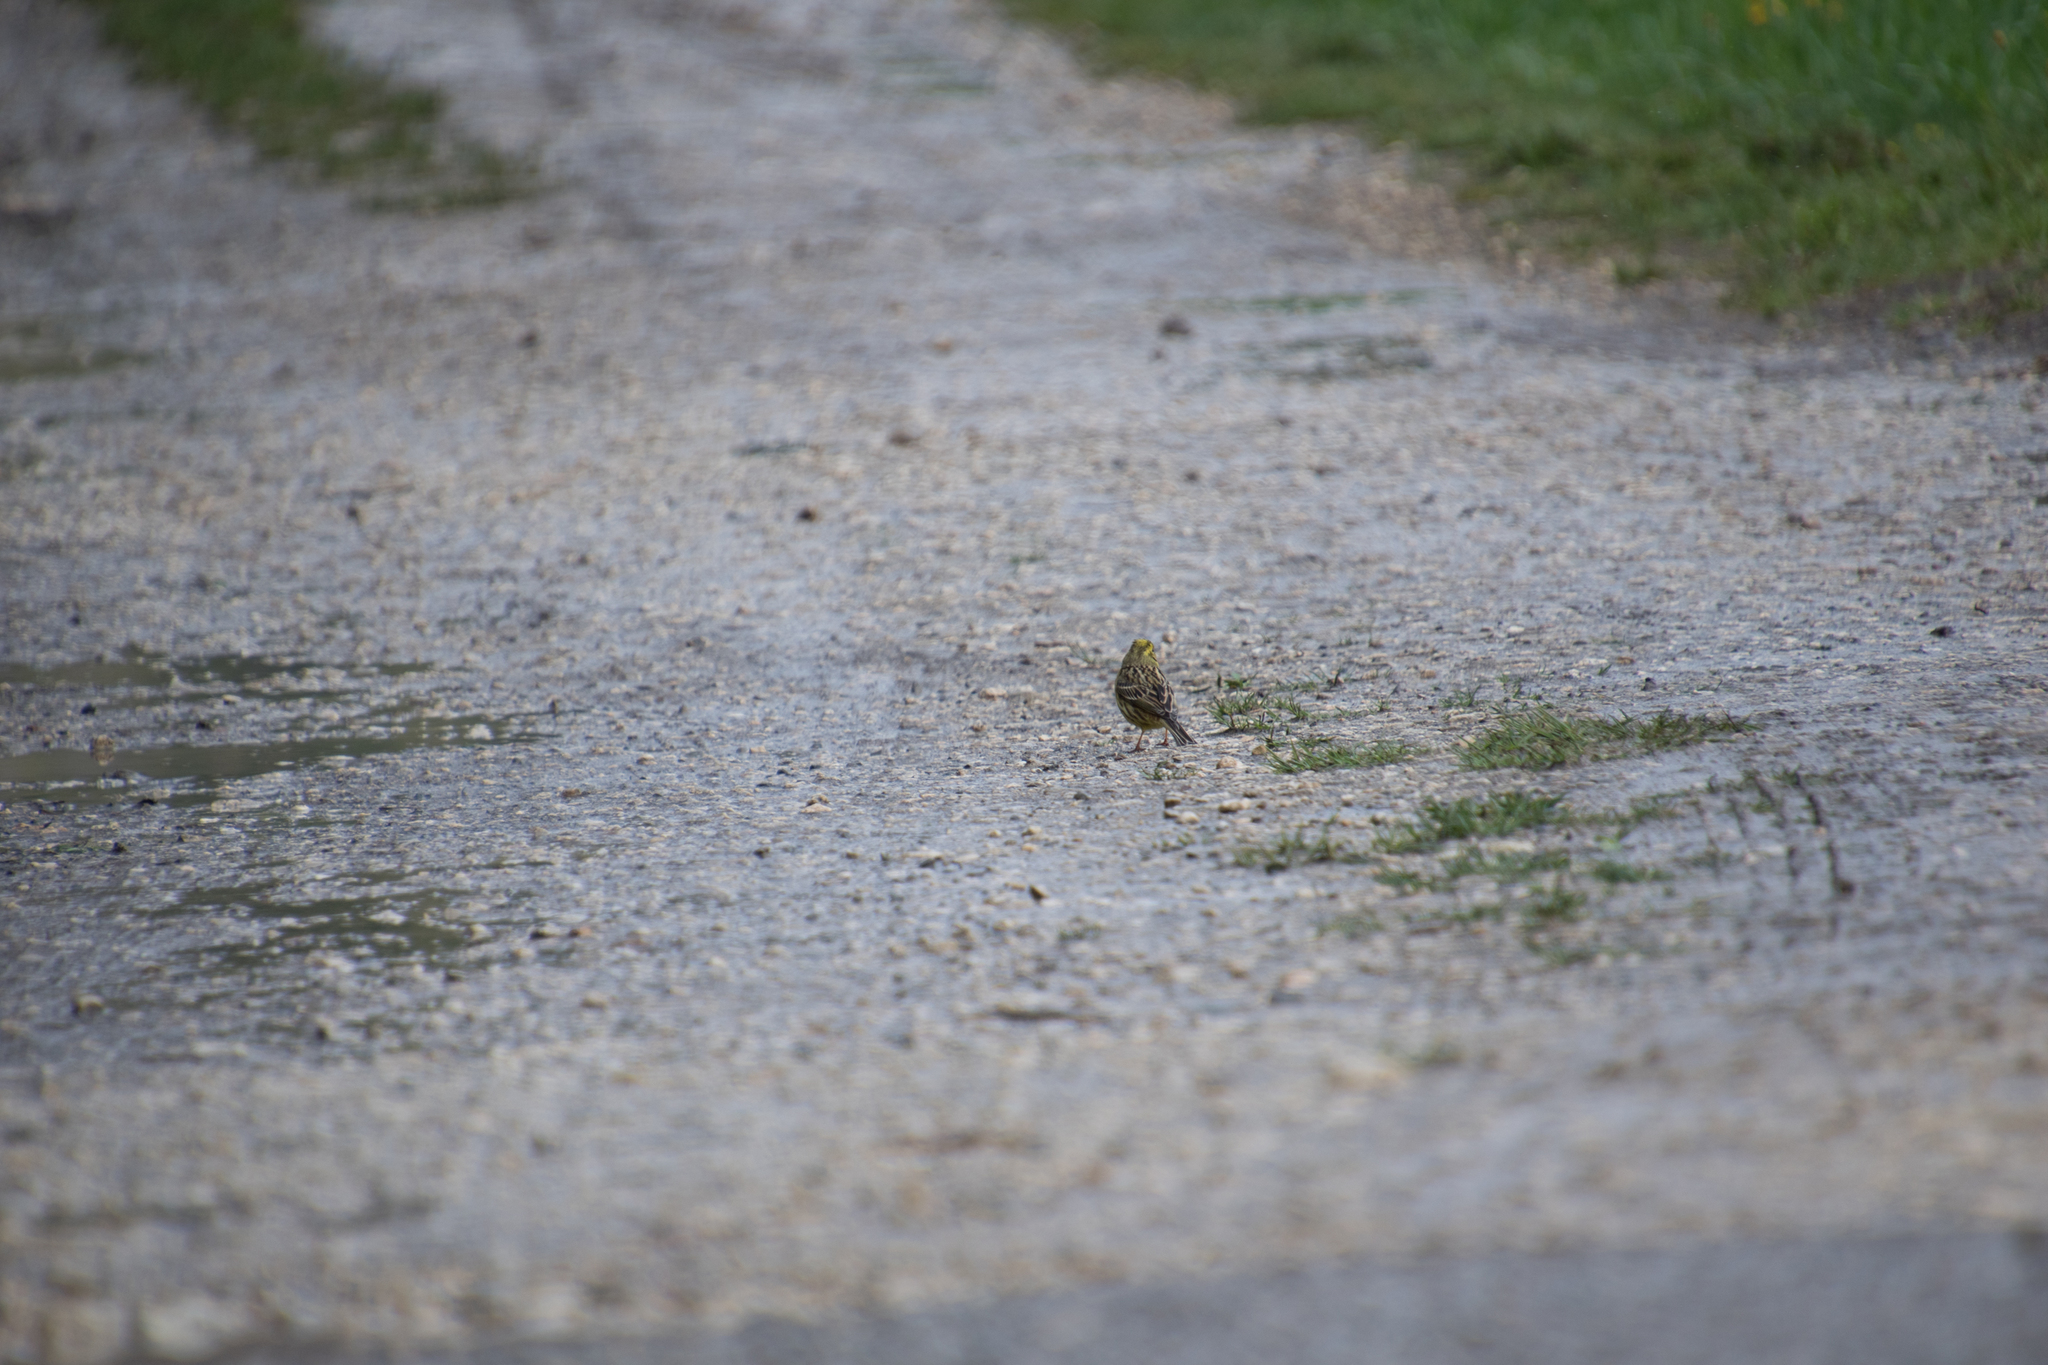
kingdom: Animalia
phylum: Chordata
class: Aves
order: Passeriformes
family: Emberizidae
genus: Emberiza
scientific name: Emberiza citrinella
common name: Yellowhammer
